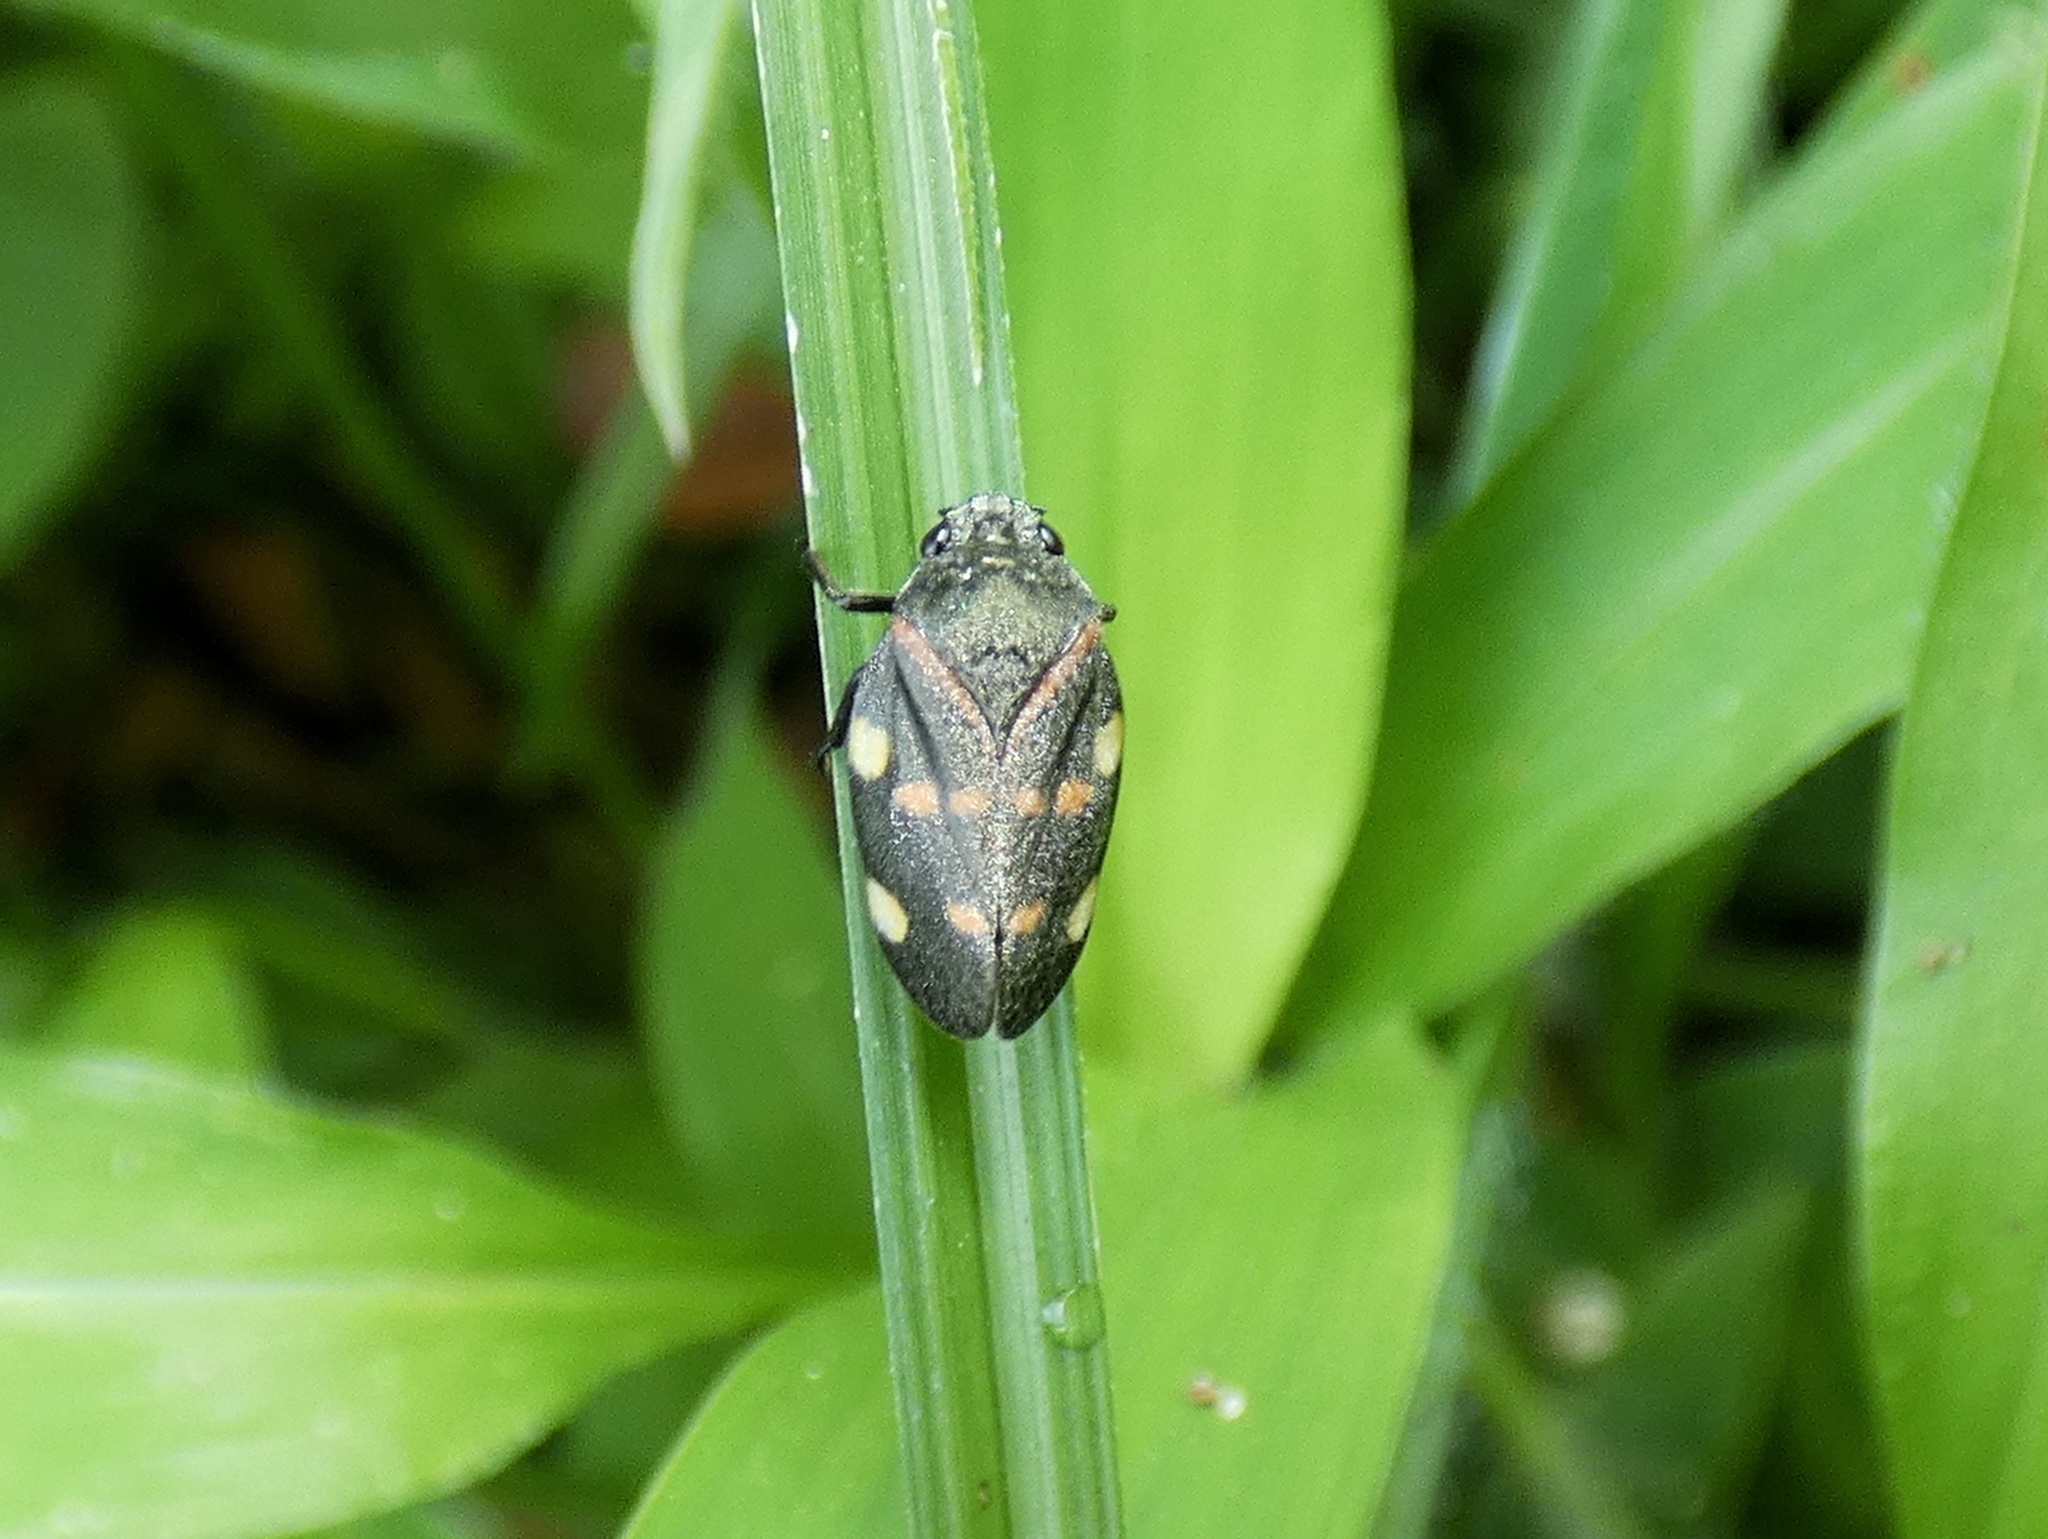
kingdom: Animalia
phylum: Arthropoda
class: Insecta
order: Hemiptera
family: Cercopidae
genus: Aeneolamia
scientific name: Aeneolamia lepidior
